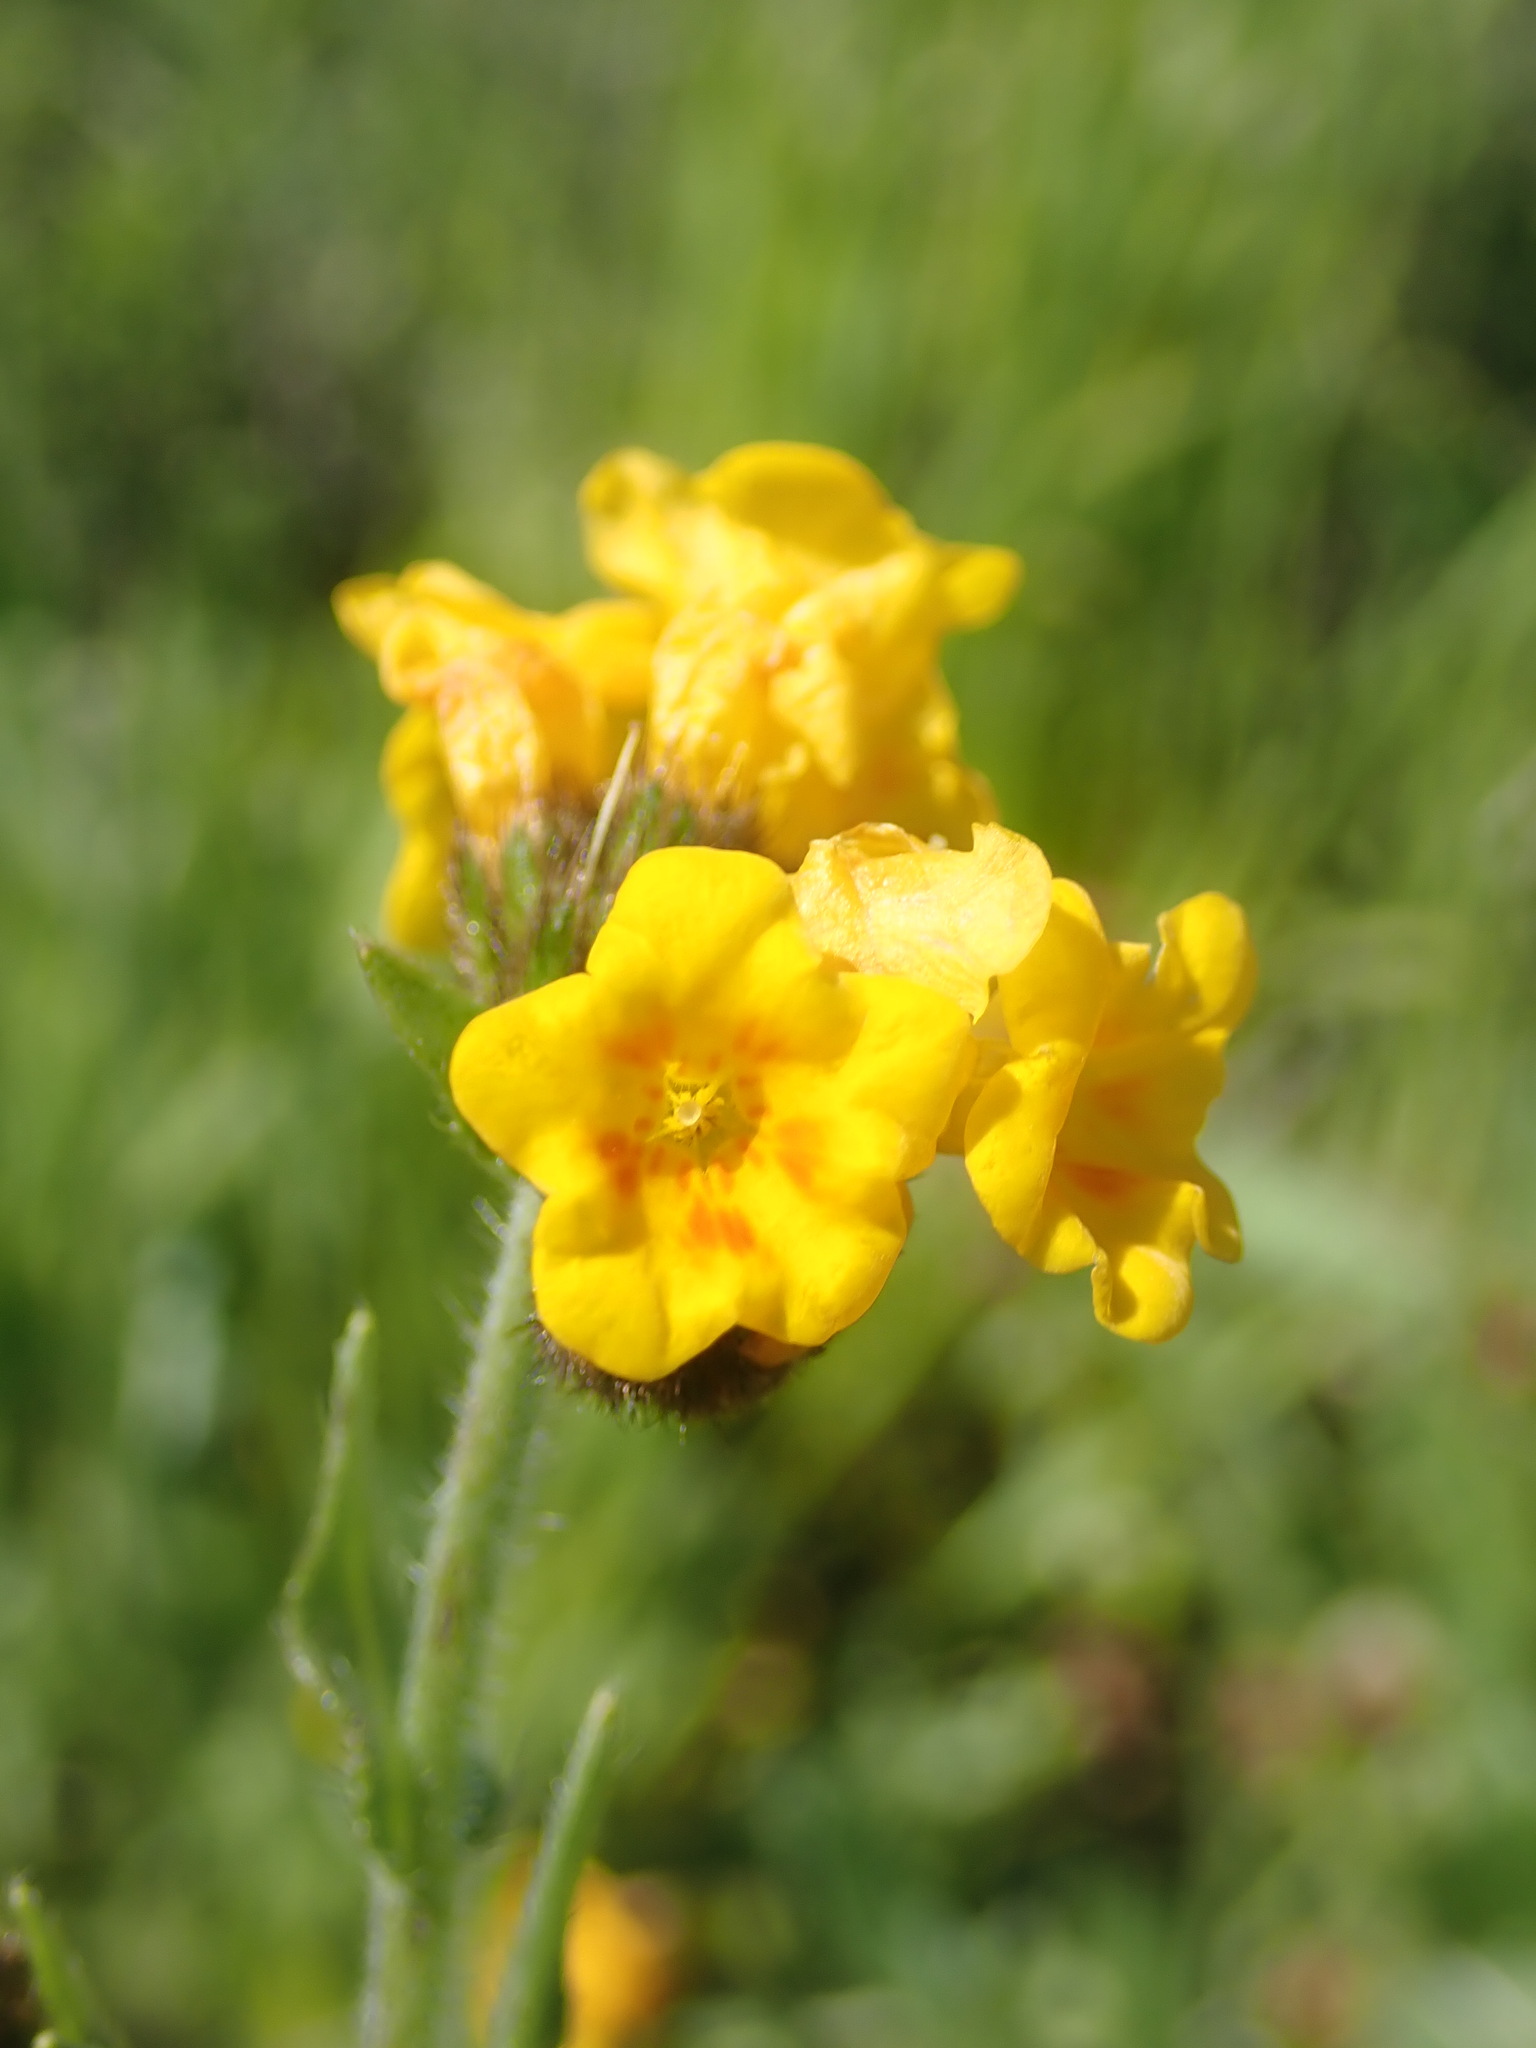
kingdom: Plantae
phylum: Tracheophyta
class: Magnoliopsida
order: Boraginales
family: Boraginaceae
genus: Amsinckia
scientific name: Amsinckia menziesii
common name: Menzies' fiddleneck
